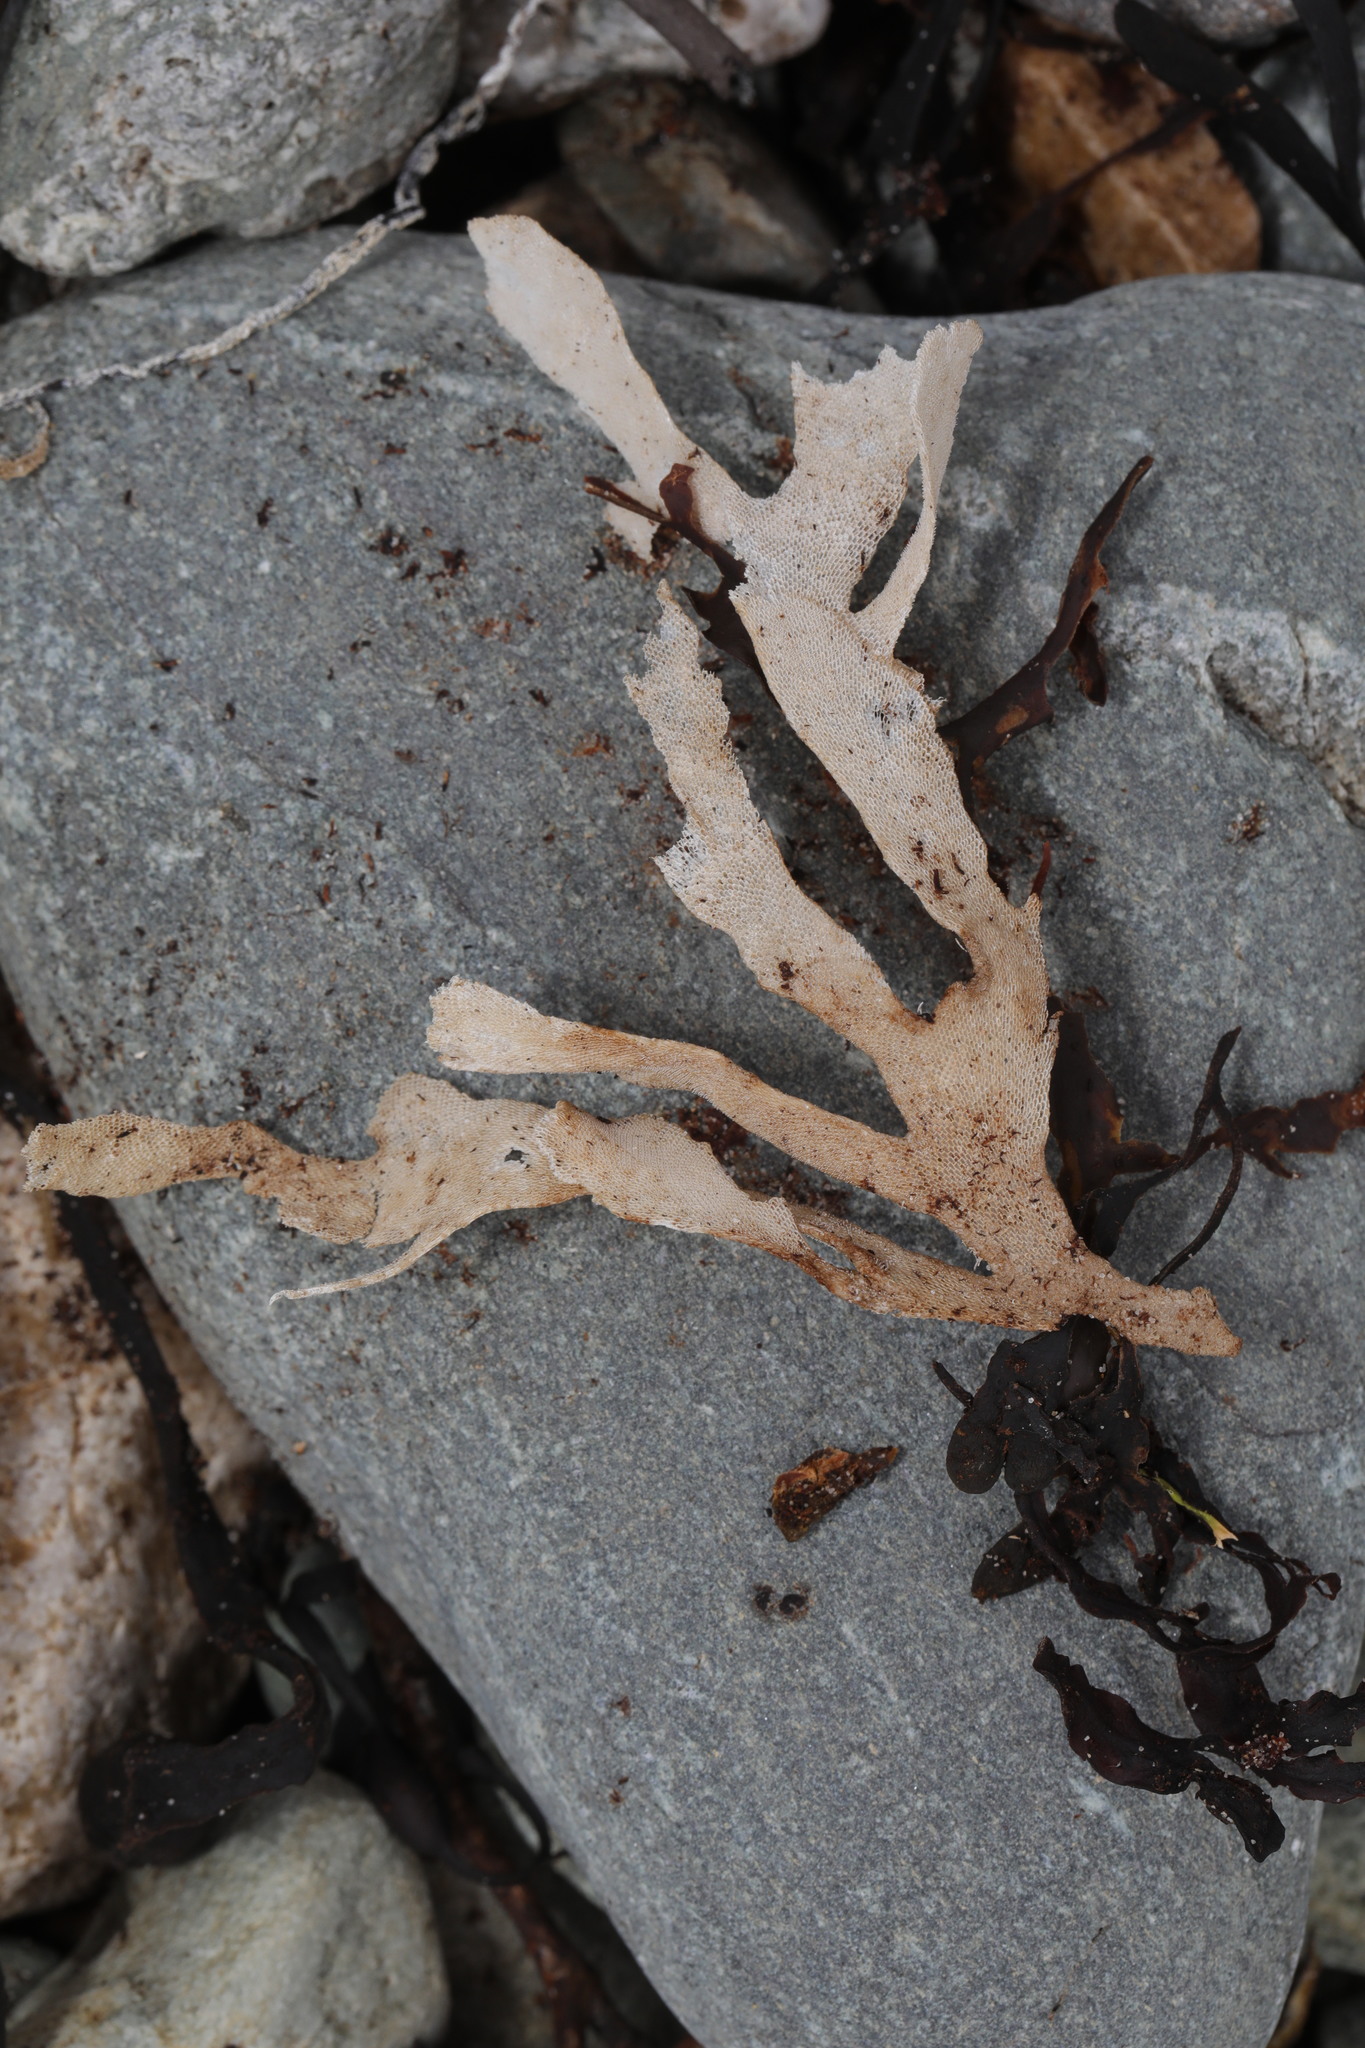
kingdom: Animalia
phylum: Bryozoa
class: Gymnolaemata
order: Cheilostomatida
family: Flustridae
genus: Flustra
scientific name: Flustra foliacea
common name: Hornwrack
